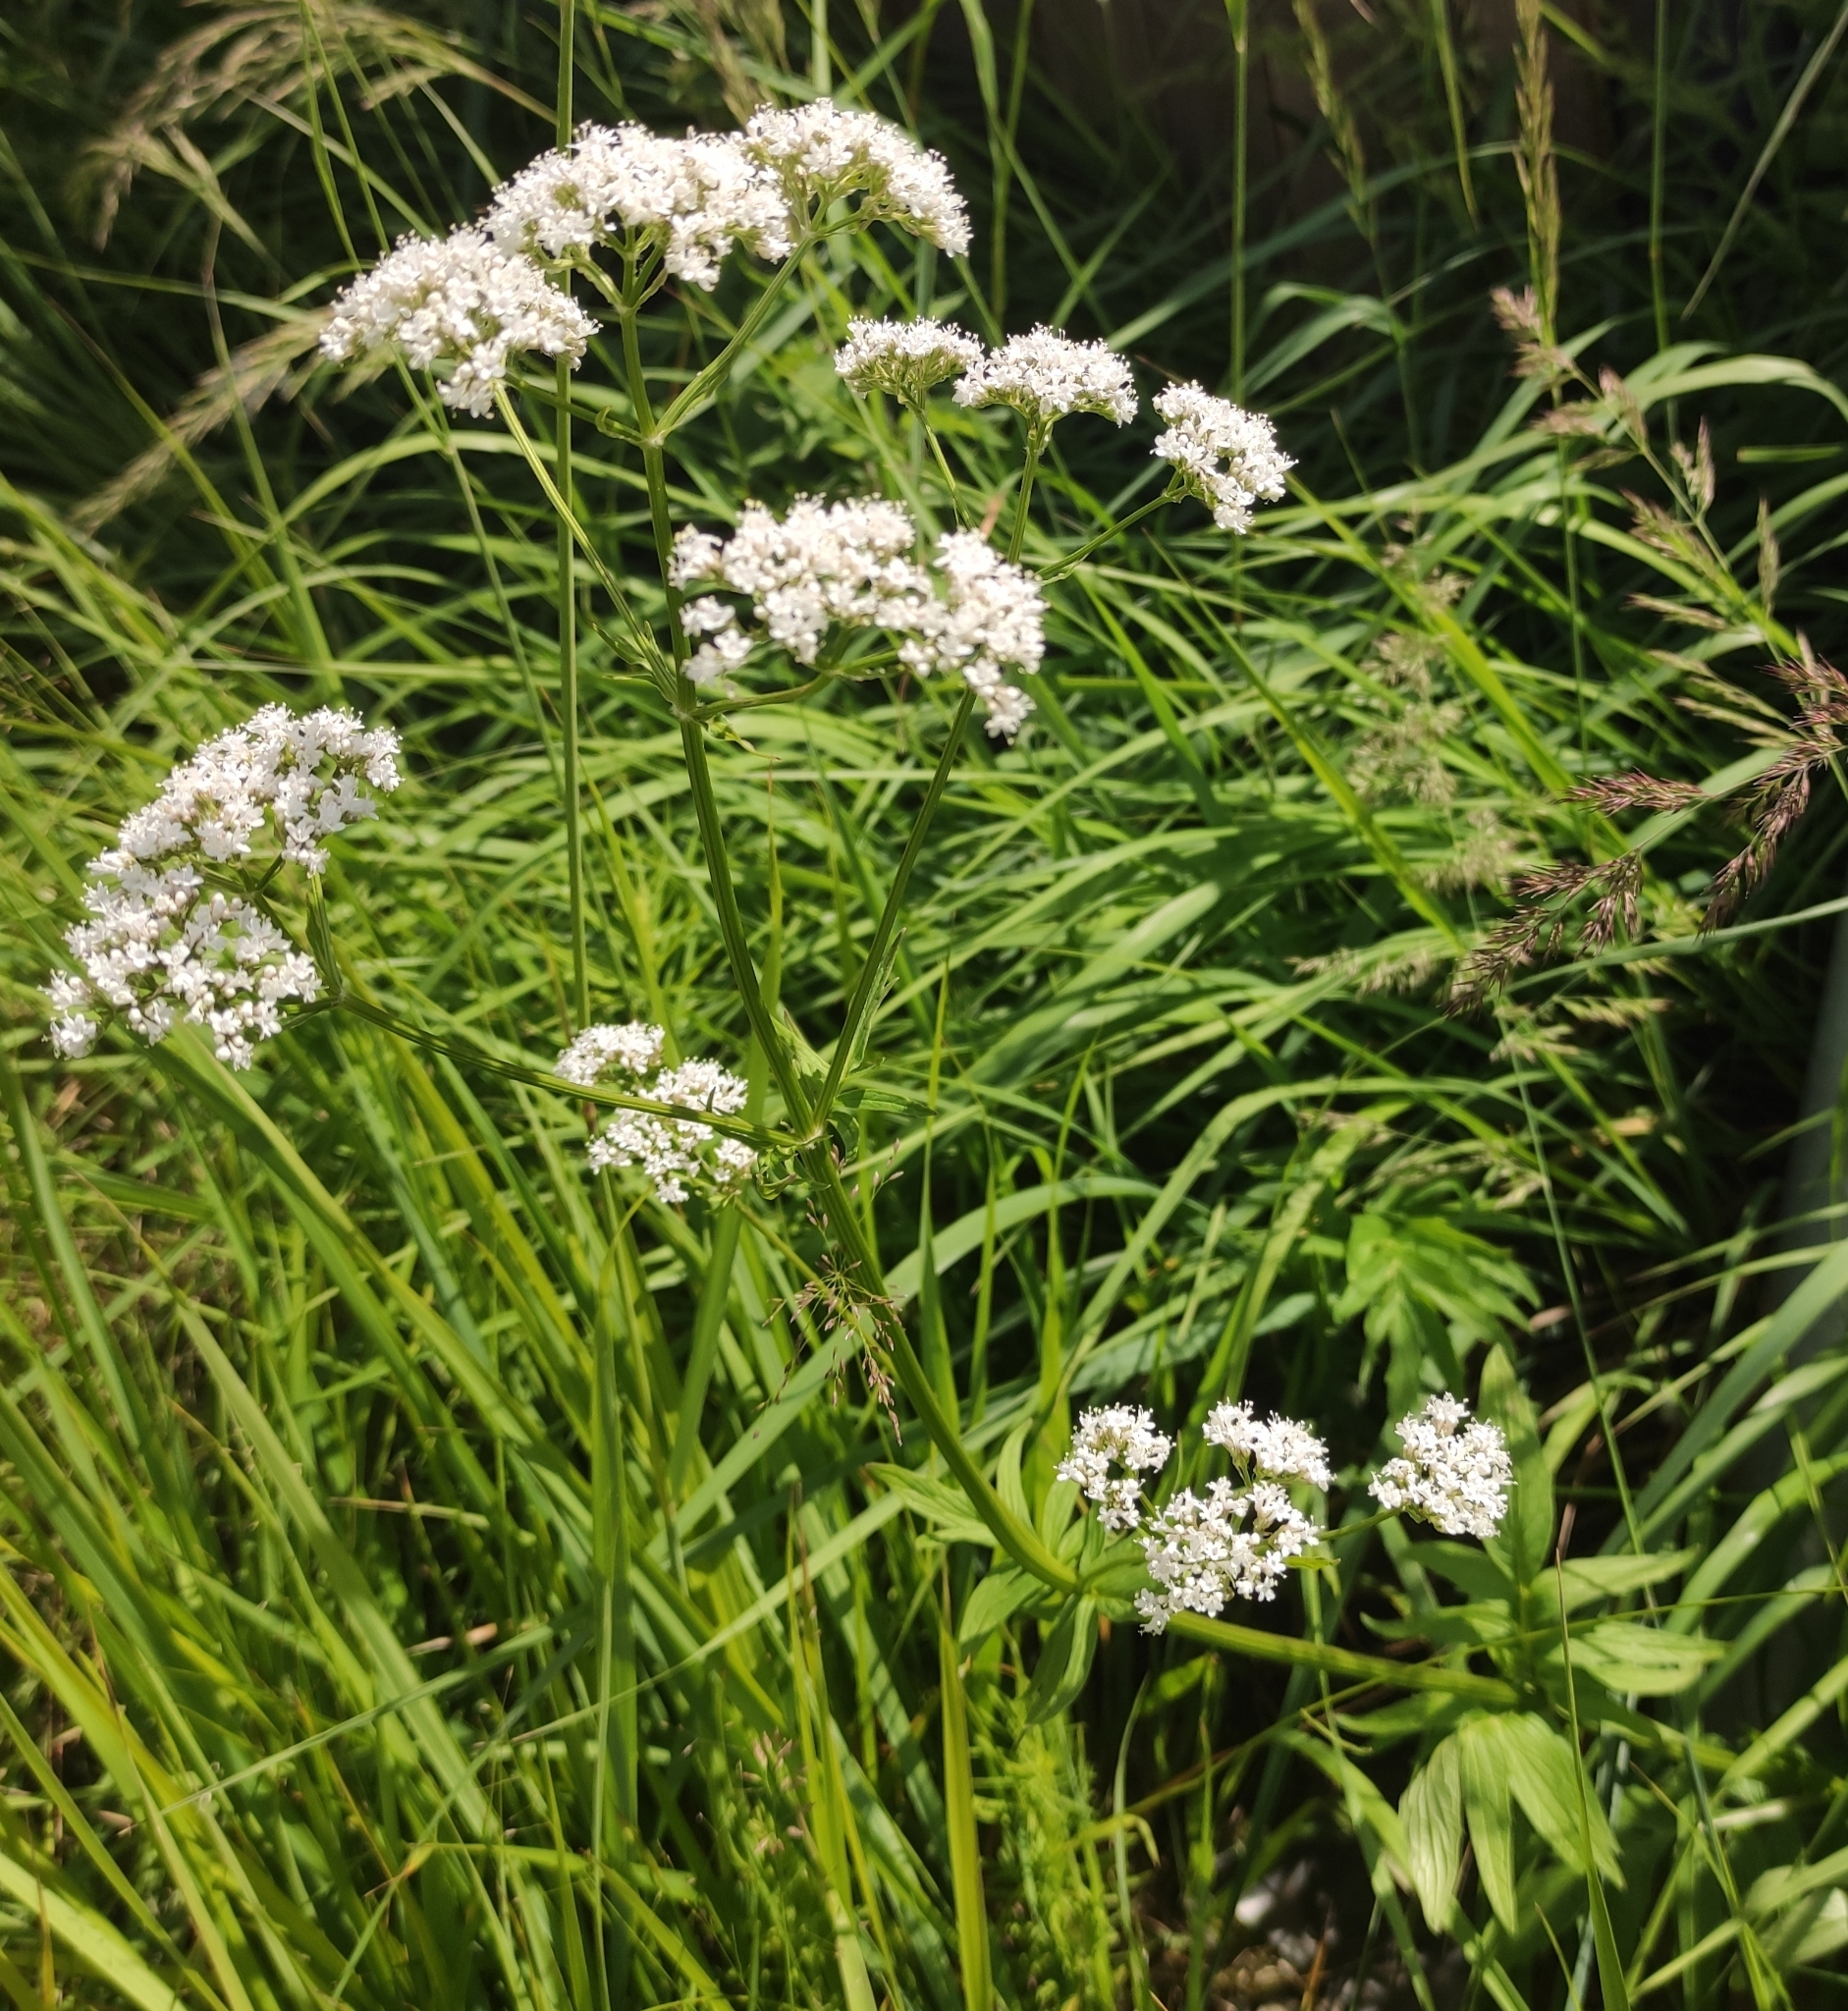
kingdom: Plantae
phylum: Tracheophyta
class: Magnoliopsida
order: Dipsacales
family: Caprifoliaceae
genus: Valeriana
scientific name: Valeriana officinalis
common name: Common valerian
